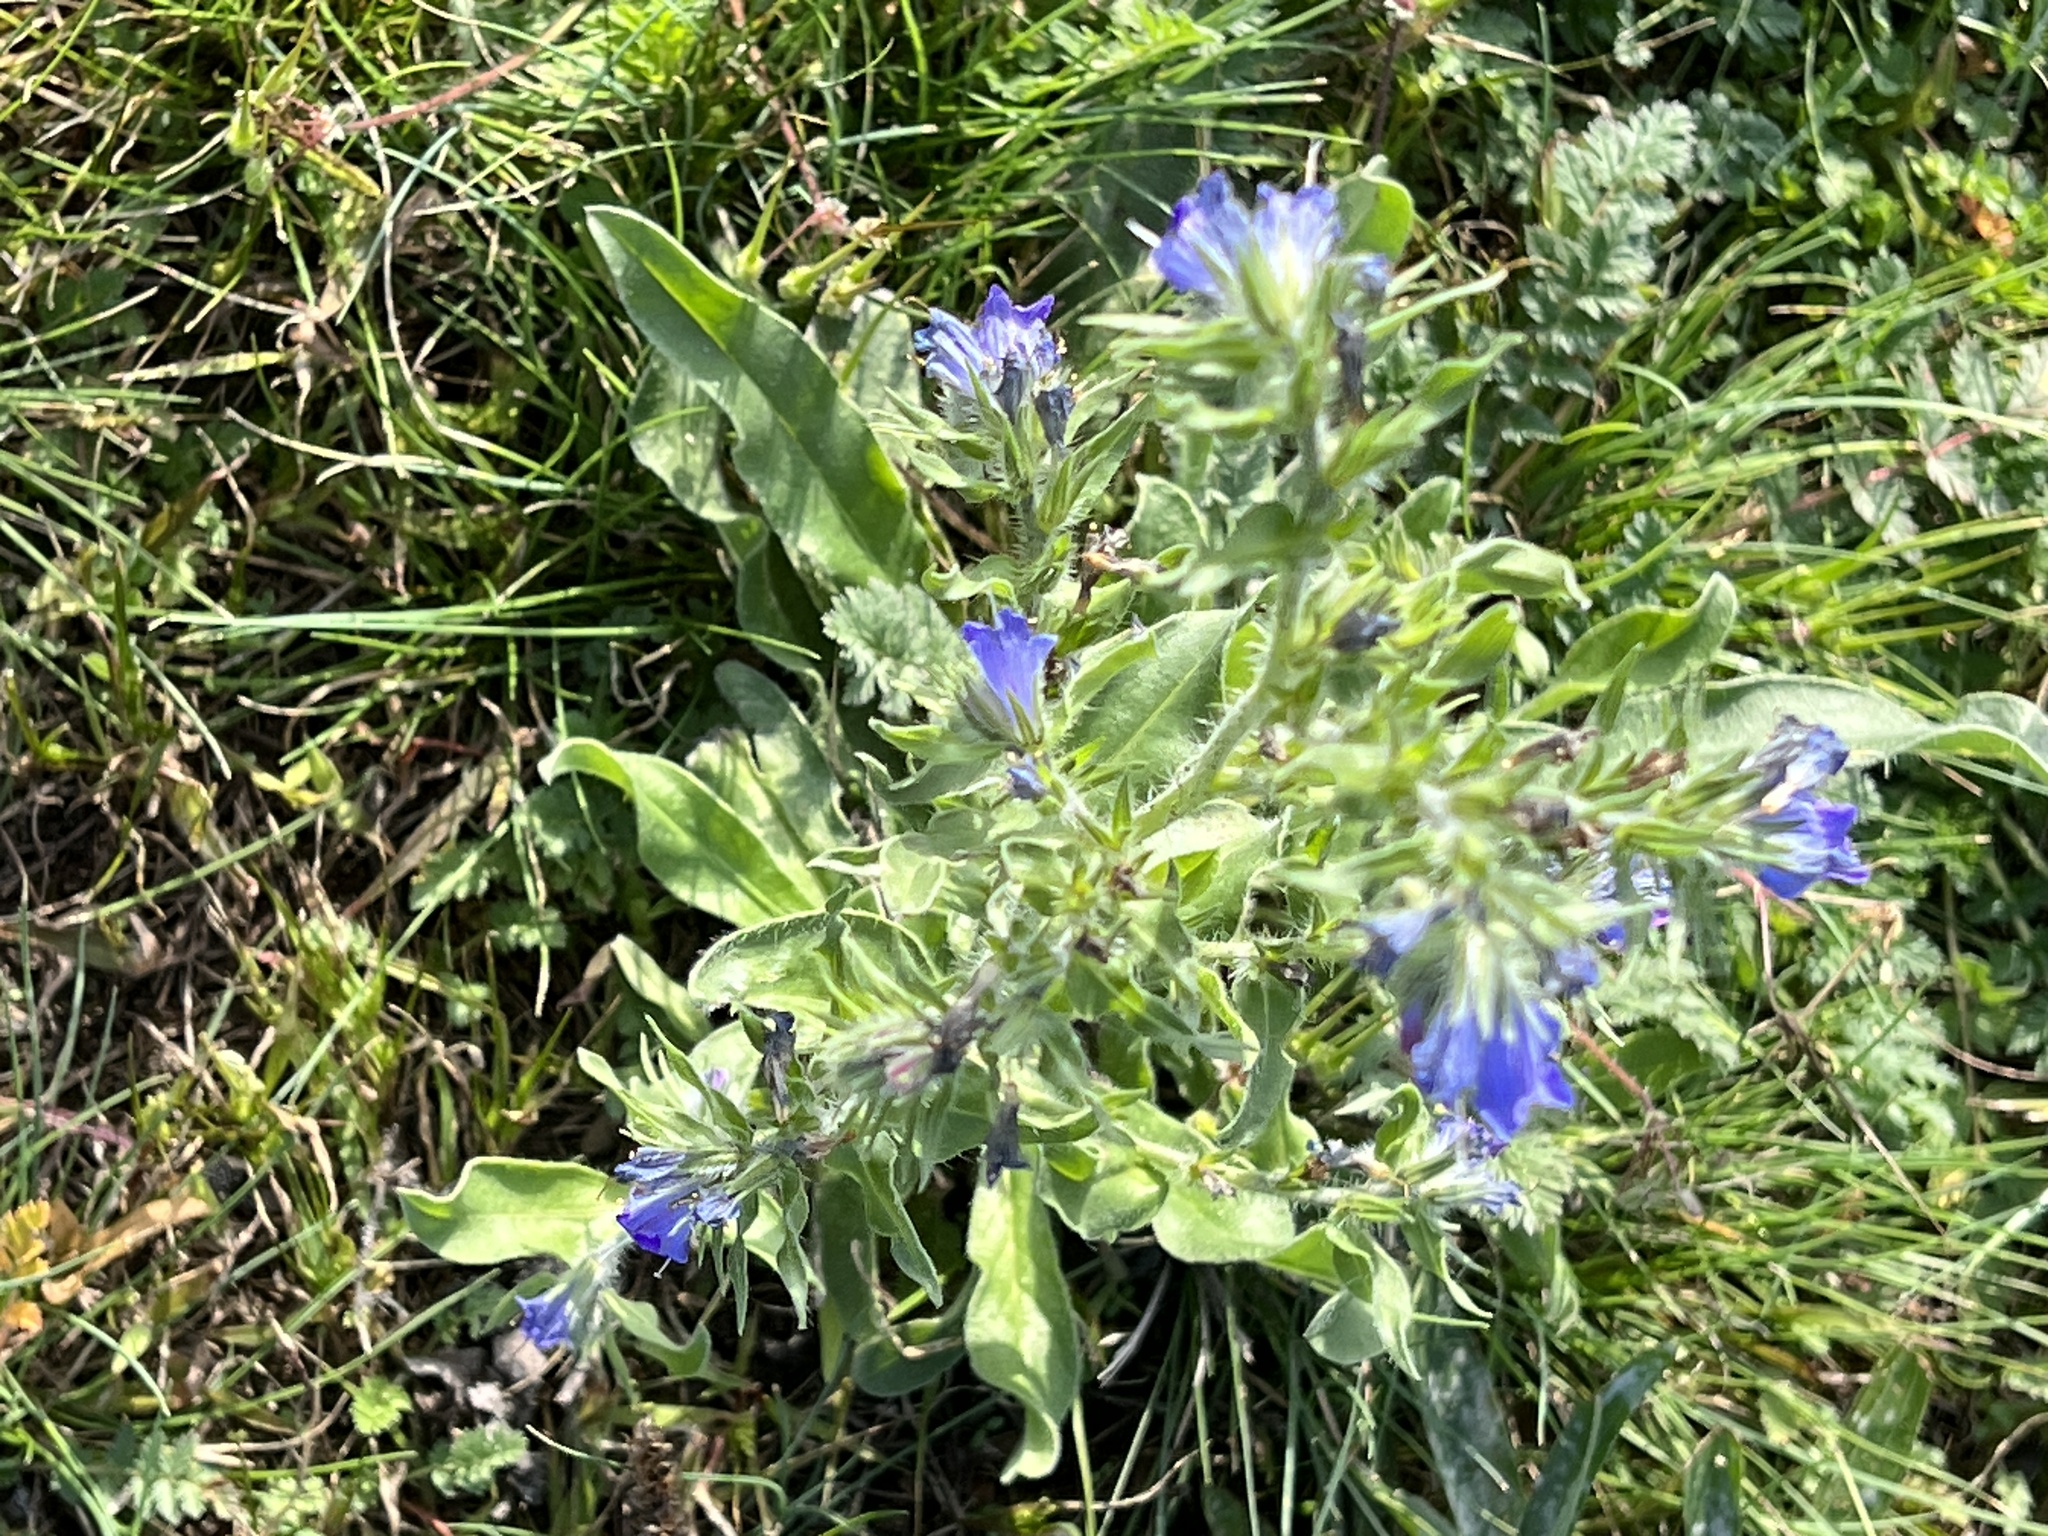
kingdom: Plantae
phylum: Tracheophyta
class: Magnoliopsida
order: Boraginales
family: Boraginaceae
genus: Echium
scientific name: Echium vulgare
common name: Common viper's bugloss
